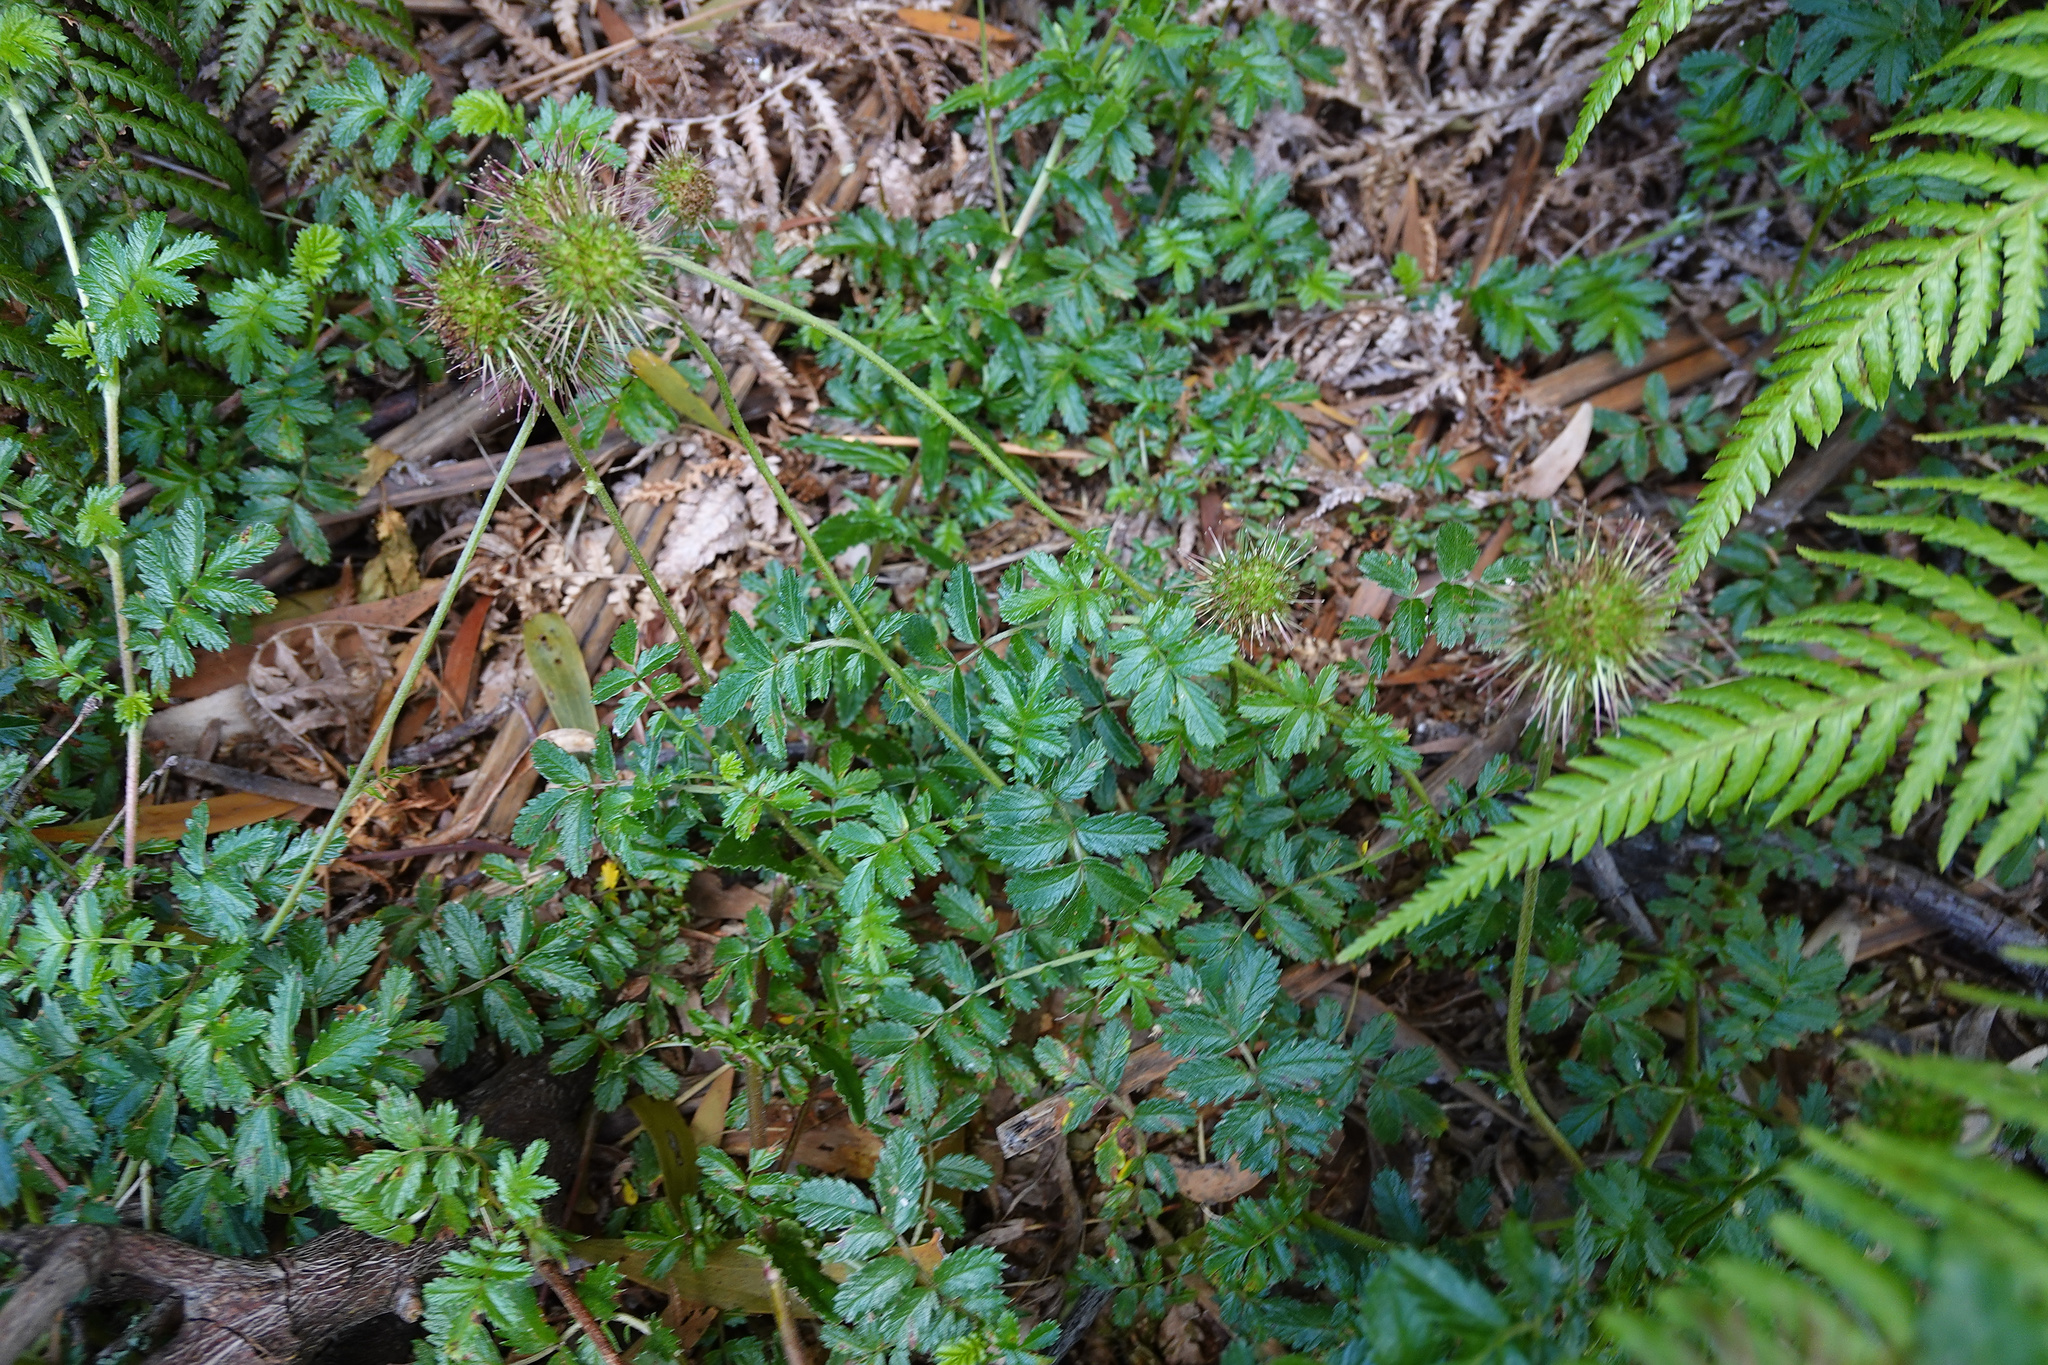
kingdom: Plantae
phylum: Tracheophyta
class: Magnoliopsida
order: Rosales
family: Rosaceae
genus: Acaena
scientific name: Acaena novae-zelandiae
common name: Pirri-pirri-bur
